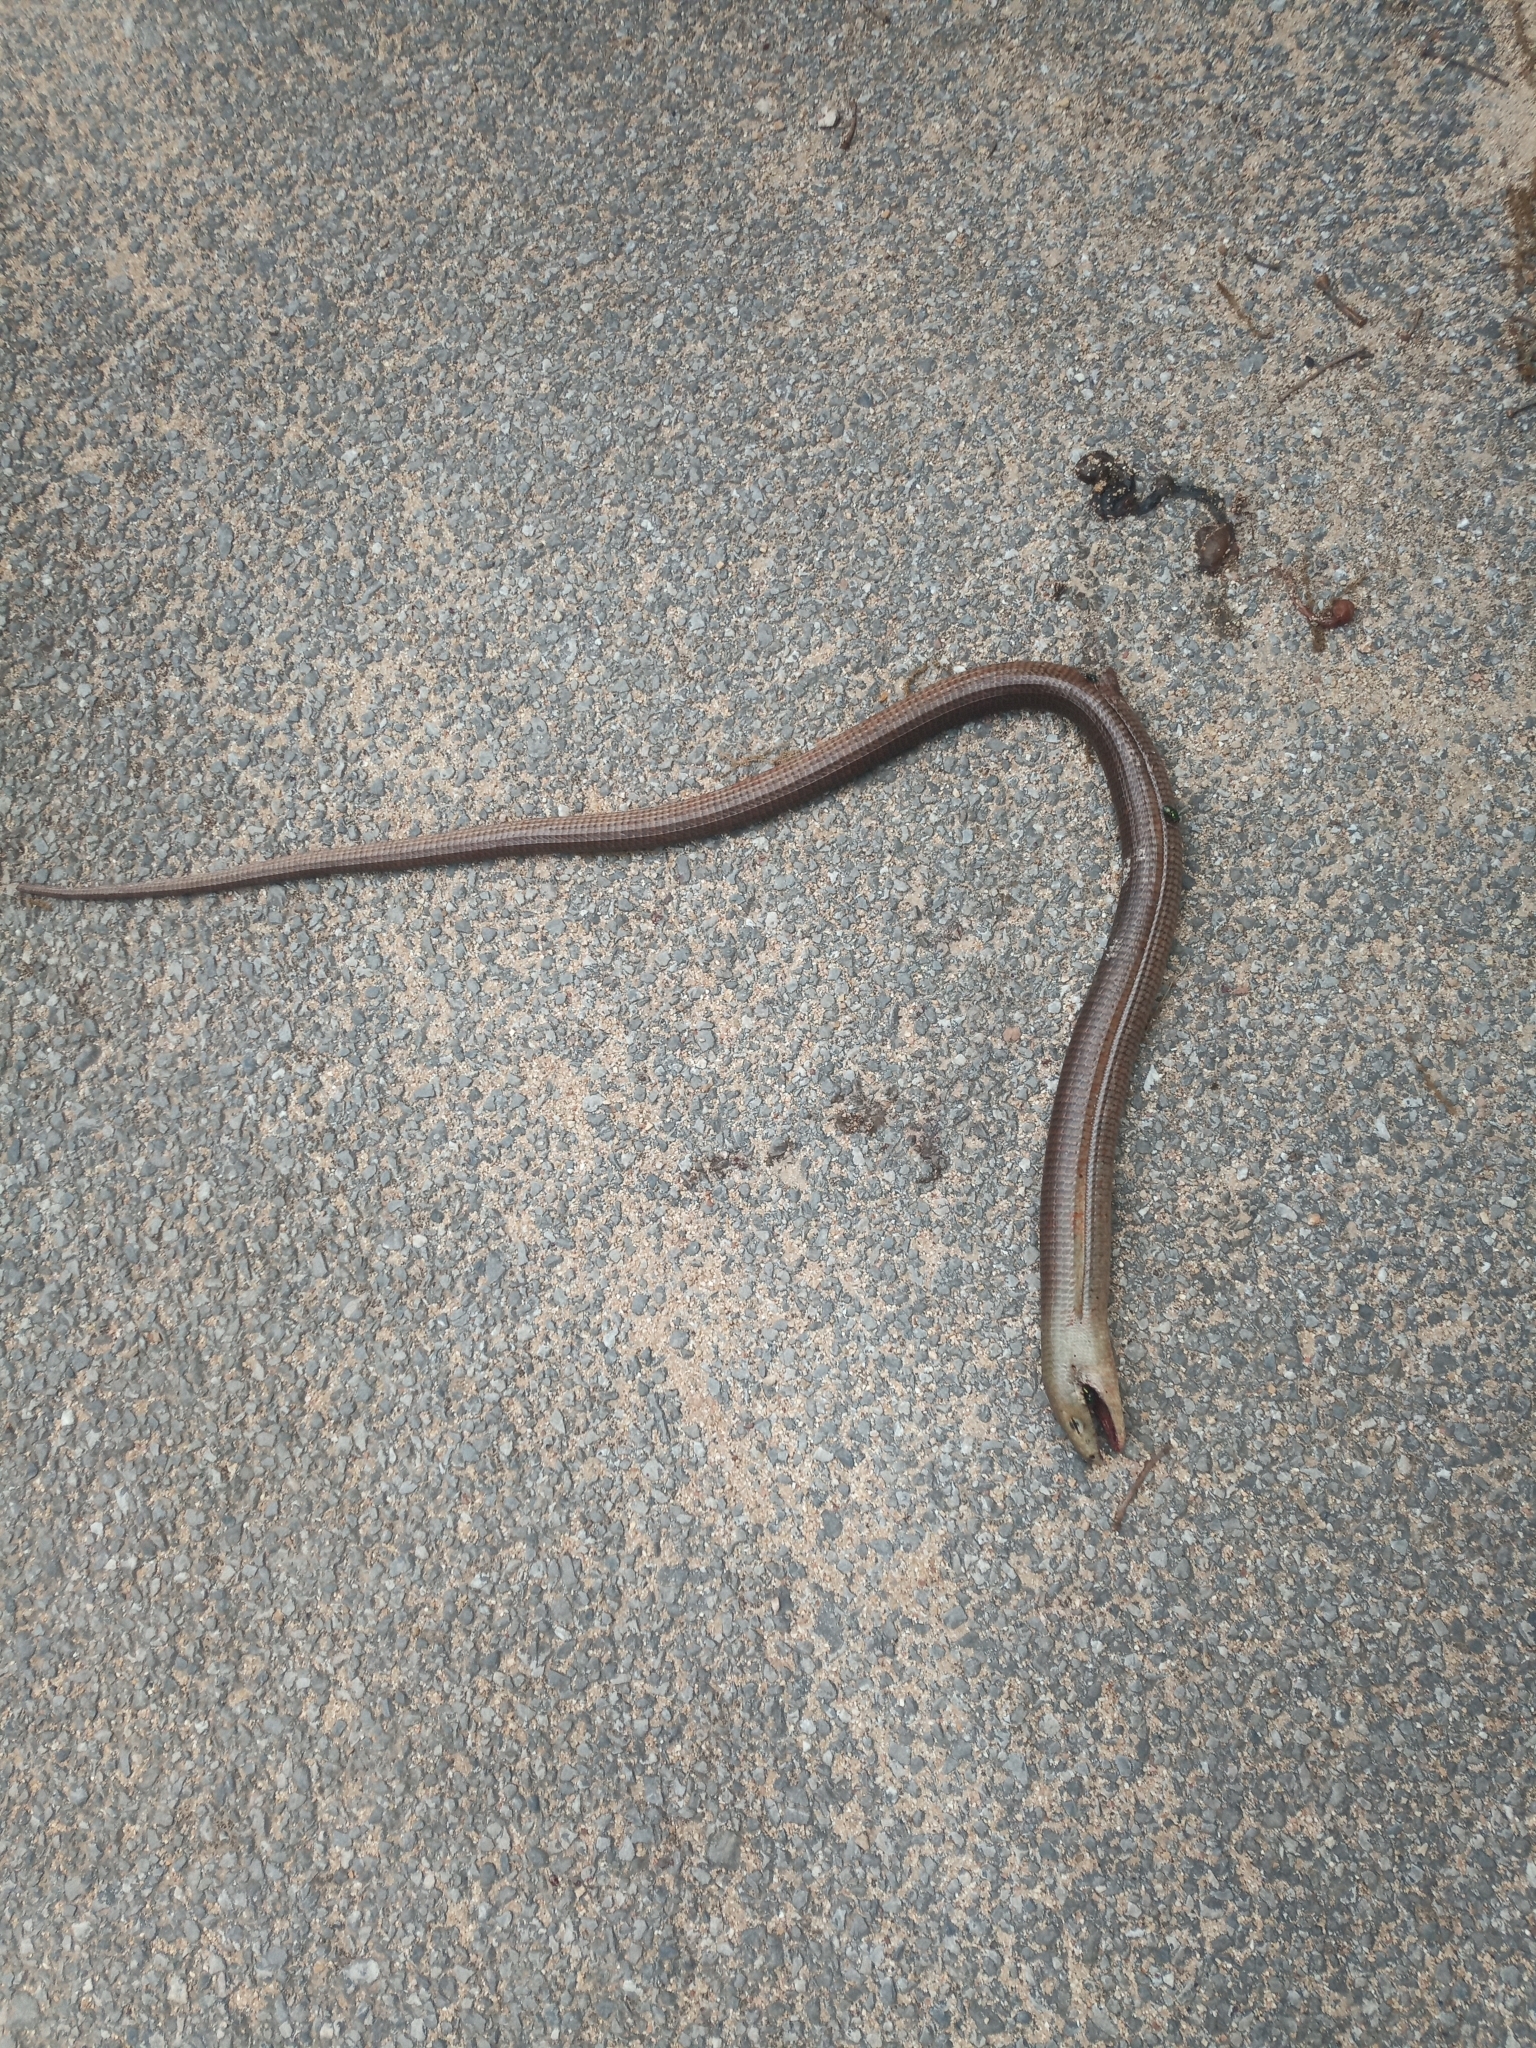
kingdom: Animalia
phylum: Chordata
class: Squamata
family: Anguidae
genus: Pseudopus
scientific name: Pseudopus apodus
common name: European glass lizard
